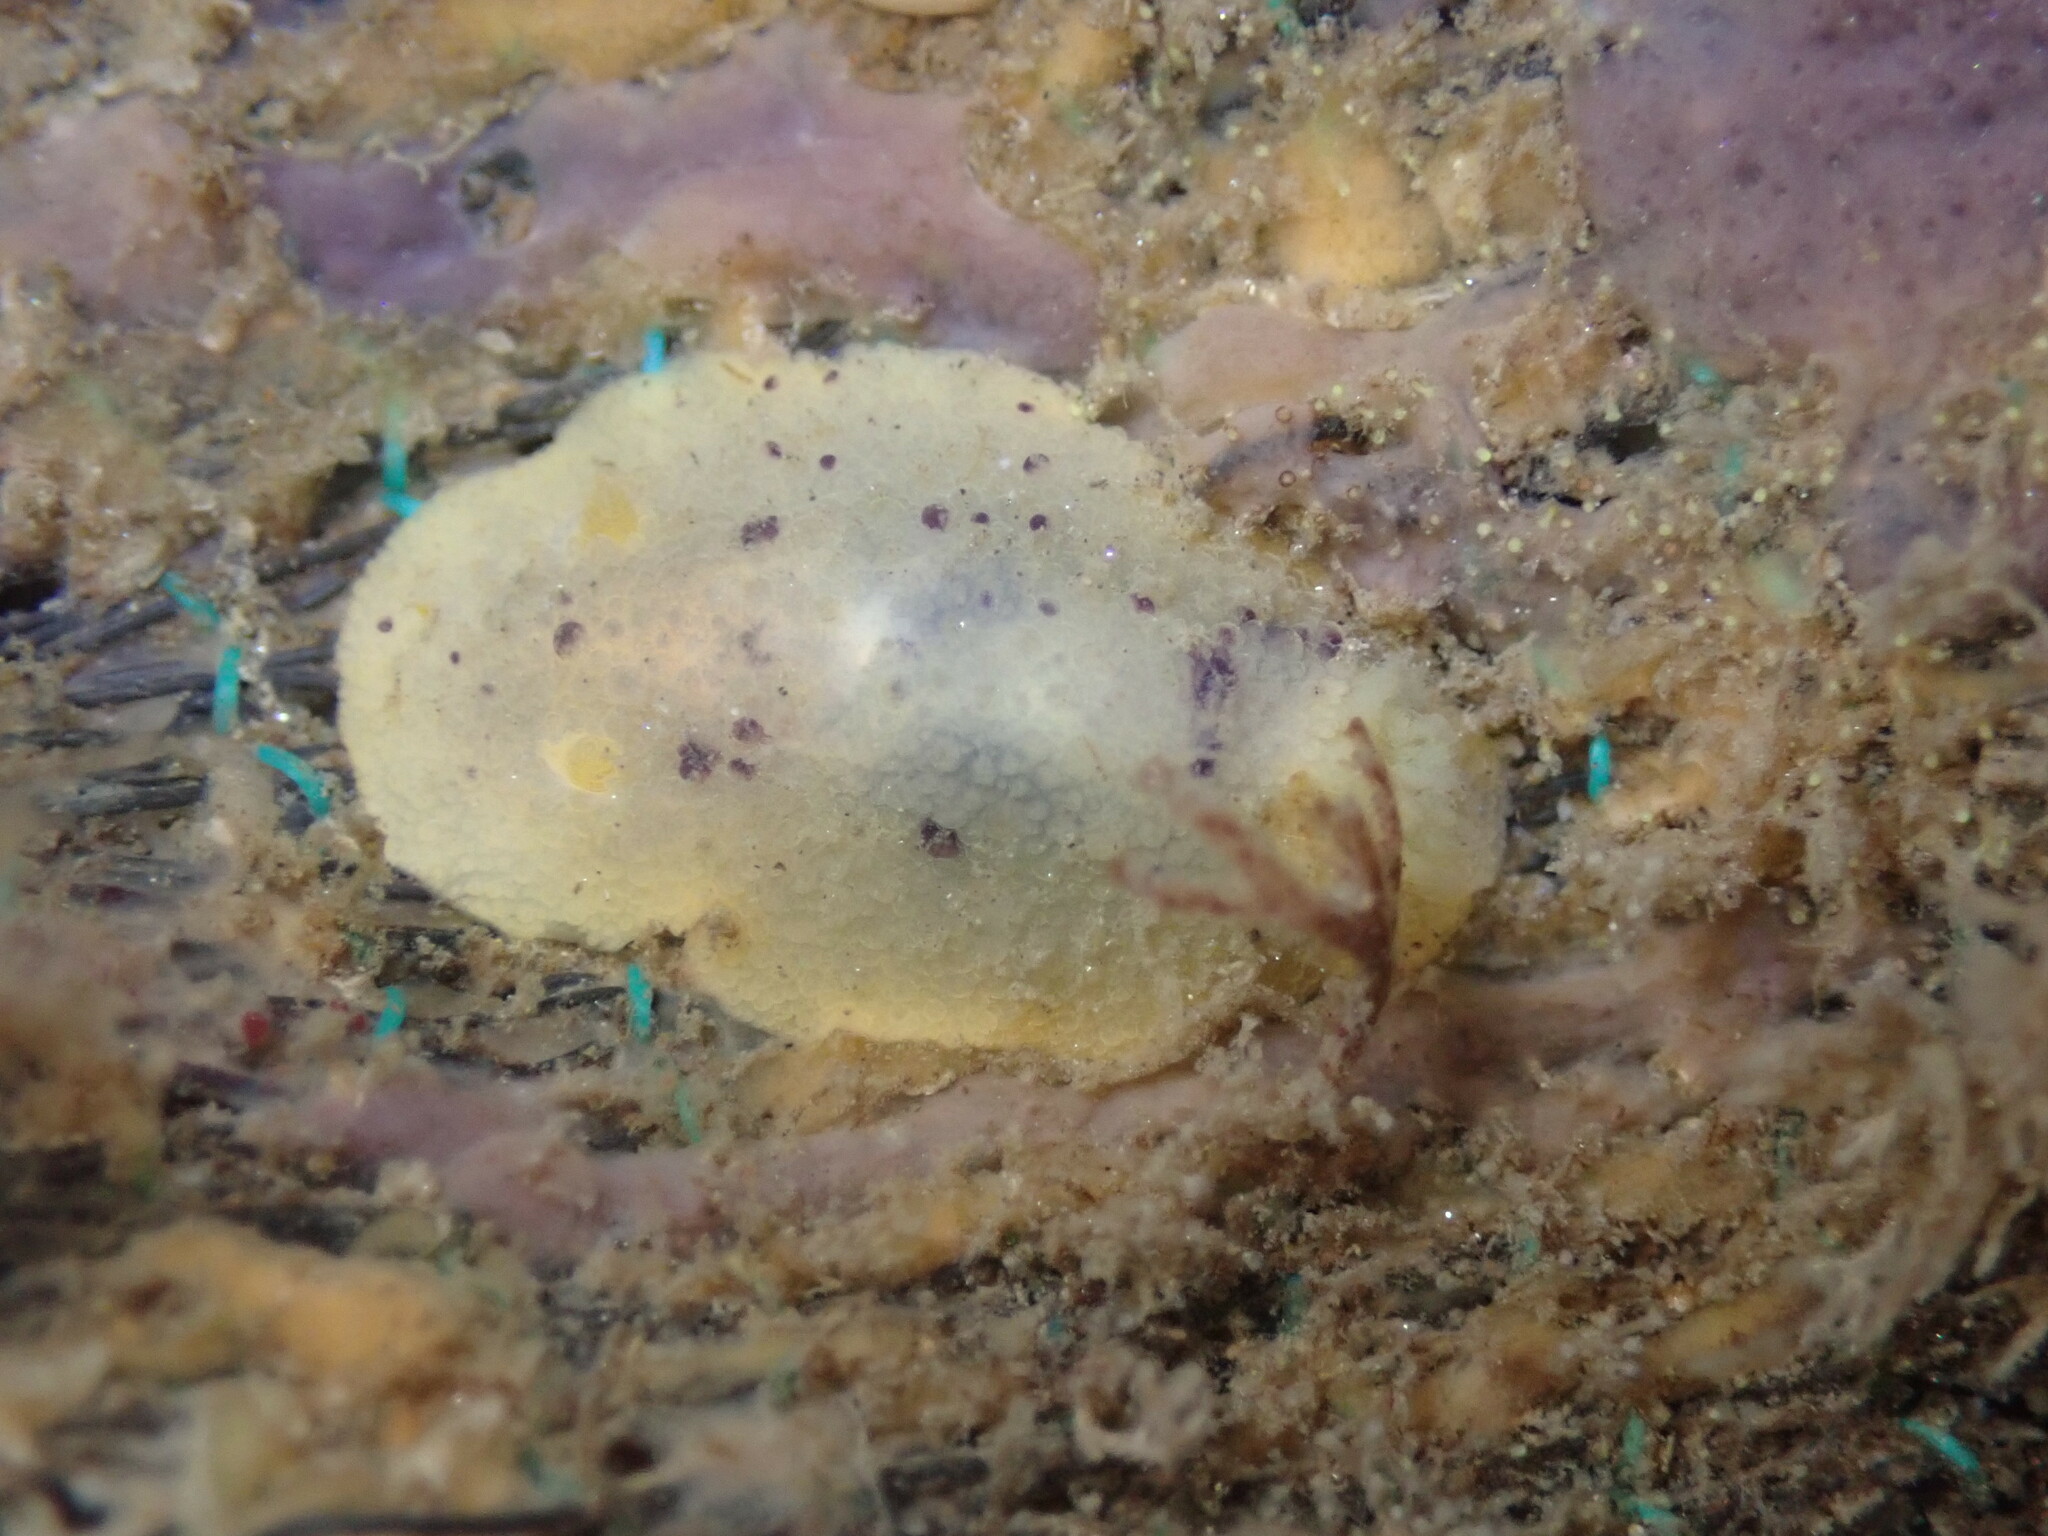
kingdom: Animalia
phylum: Mollusca
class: Gastropoda
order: Nudibranchia
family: Dorididae
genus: Doris
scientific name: Doris montereyensis
